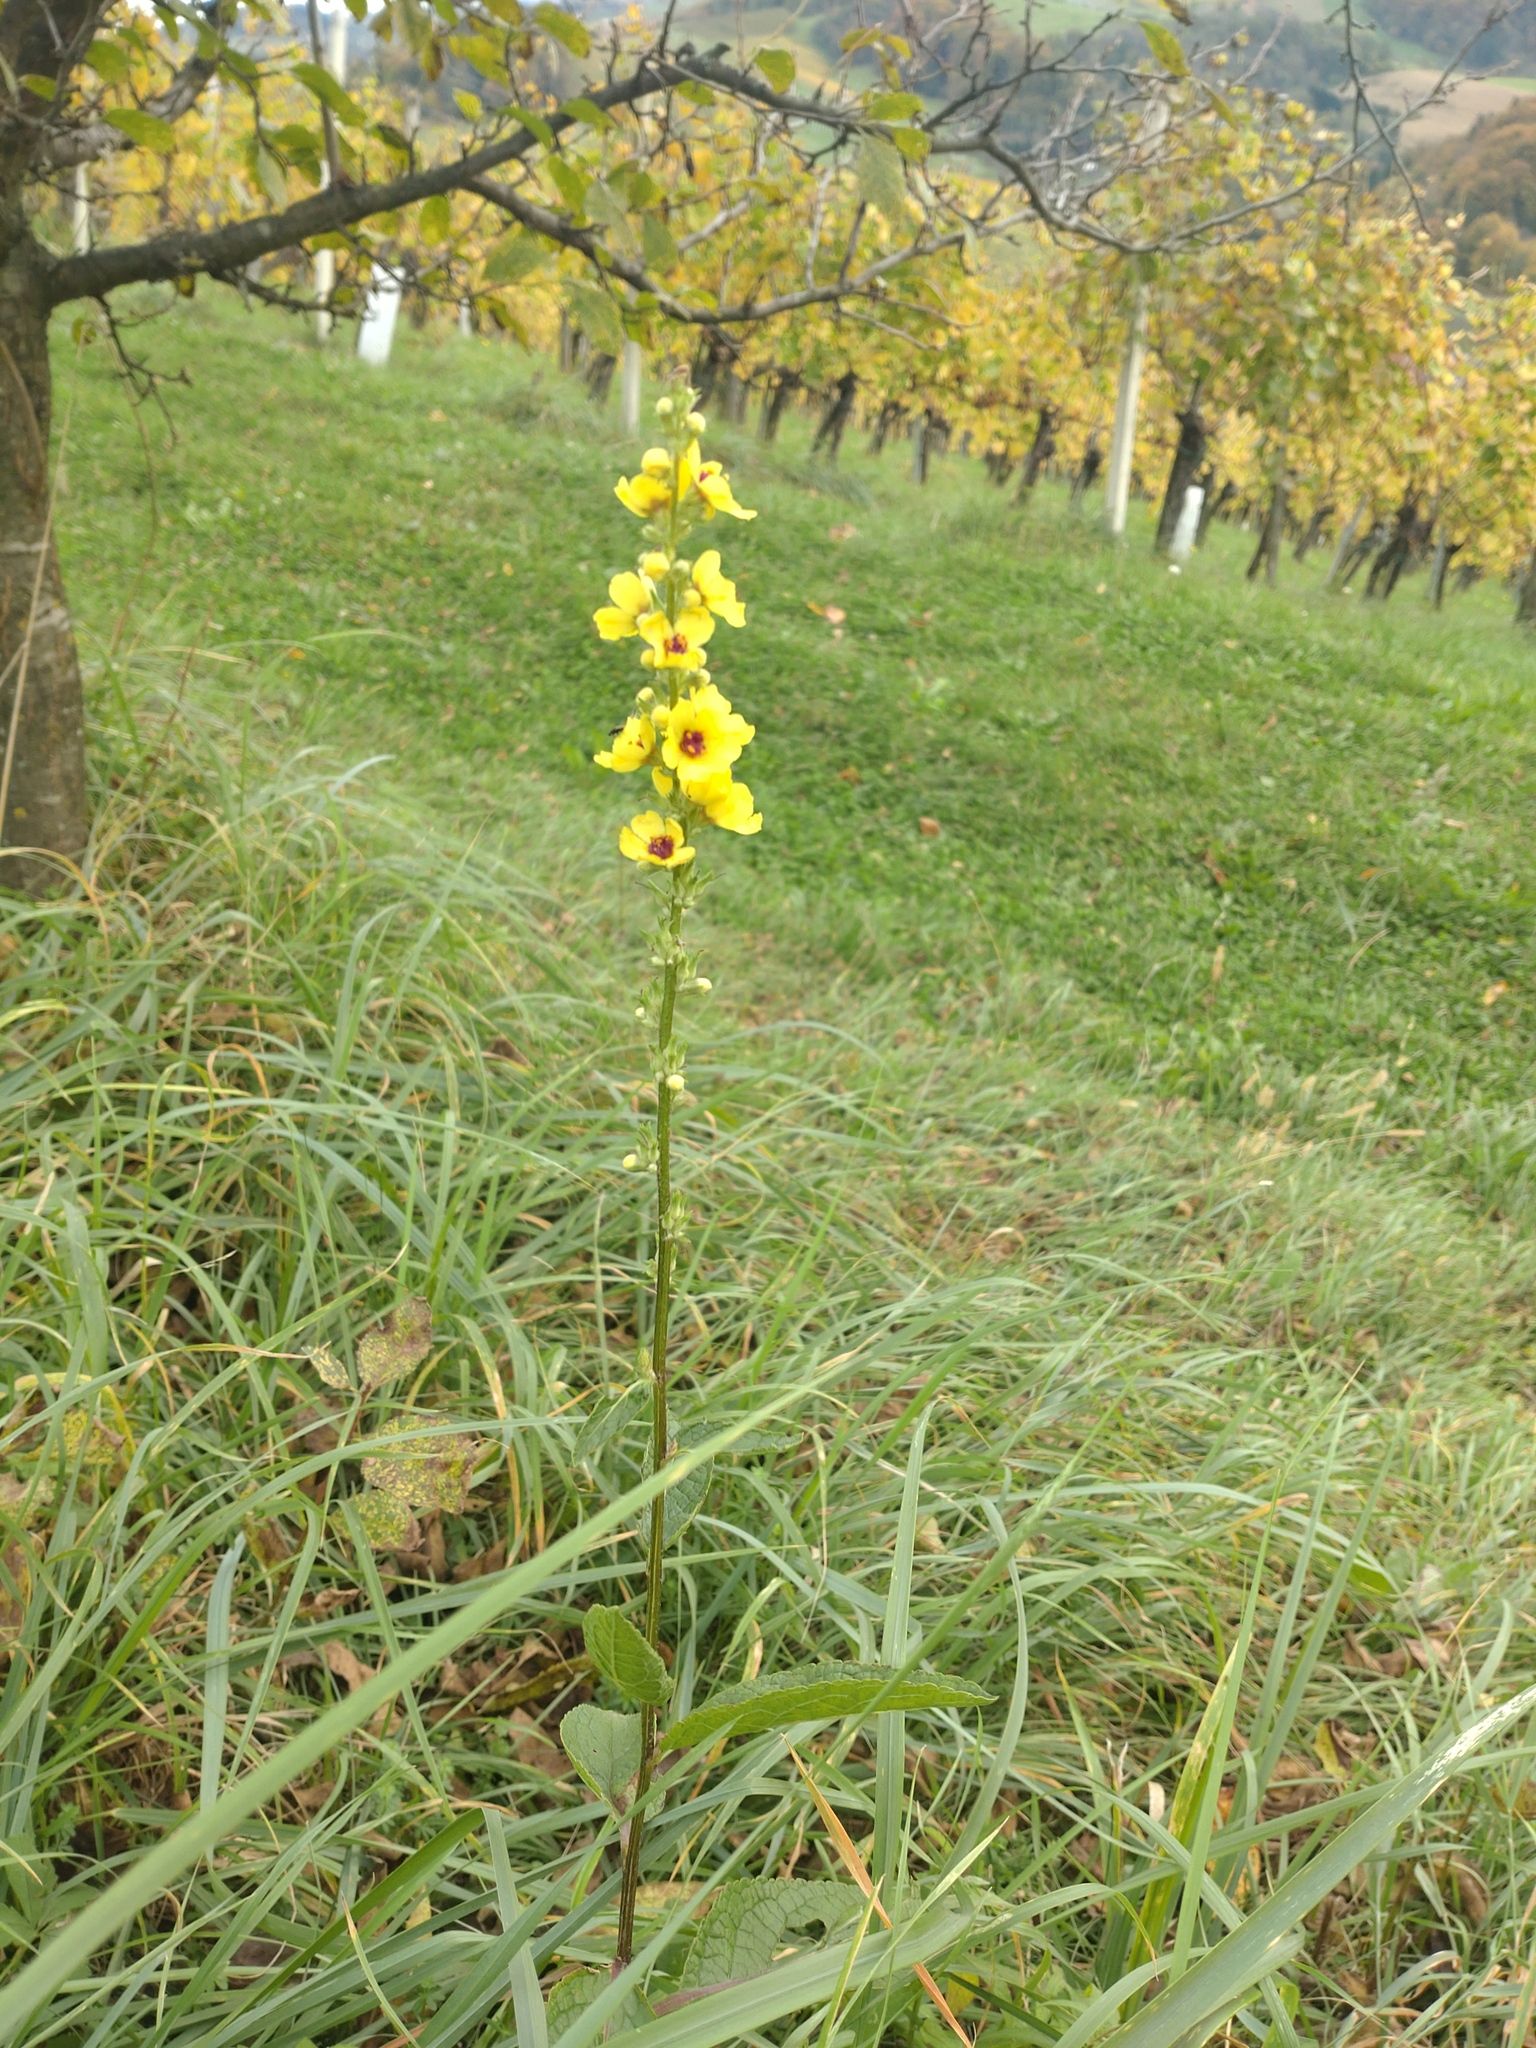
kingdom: Plantae
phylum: Tracheophyta
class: Magnoliopsida
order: Lamiales
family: Scrophulariaceae
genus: Verbascum
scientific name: Verbascum chaixii
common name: Nettle-leaved mullein
